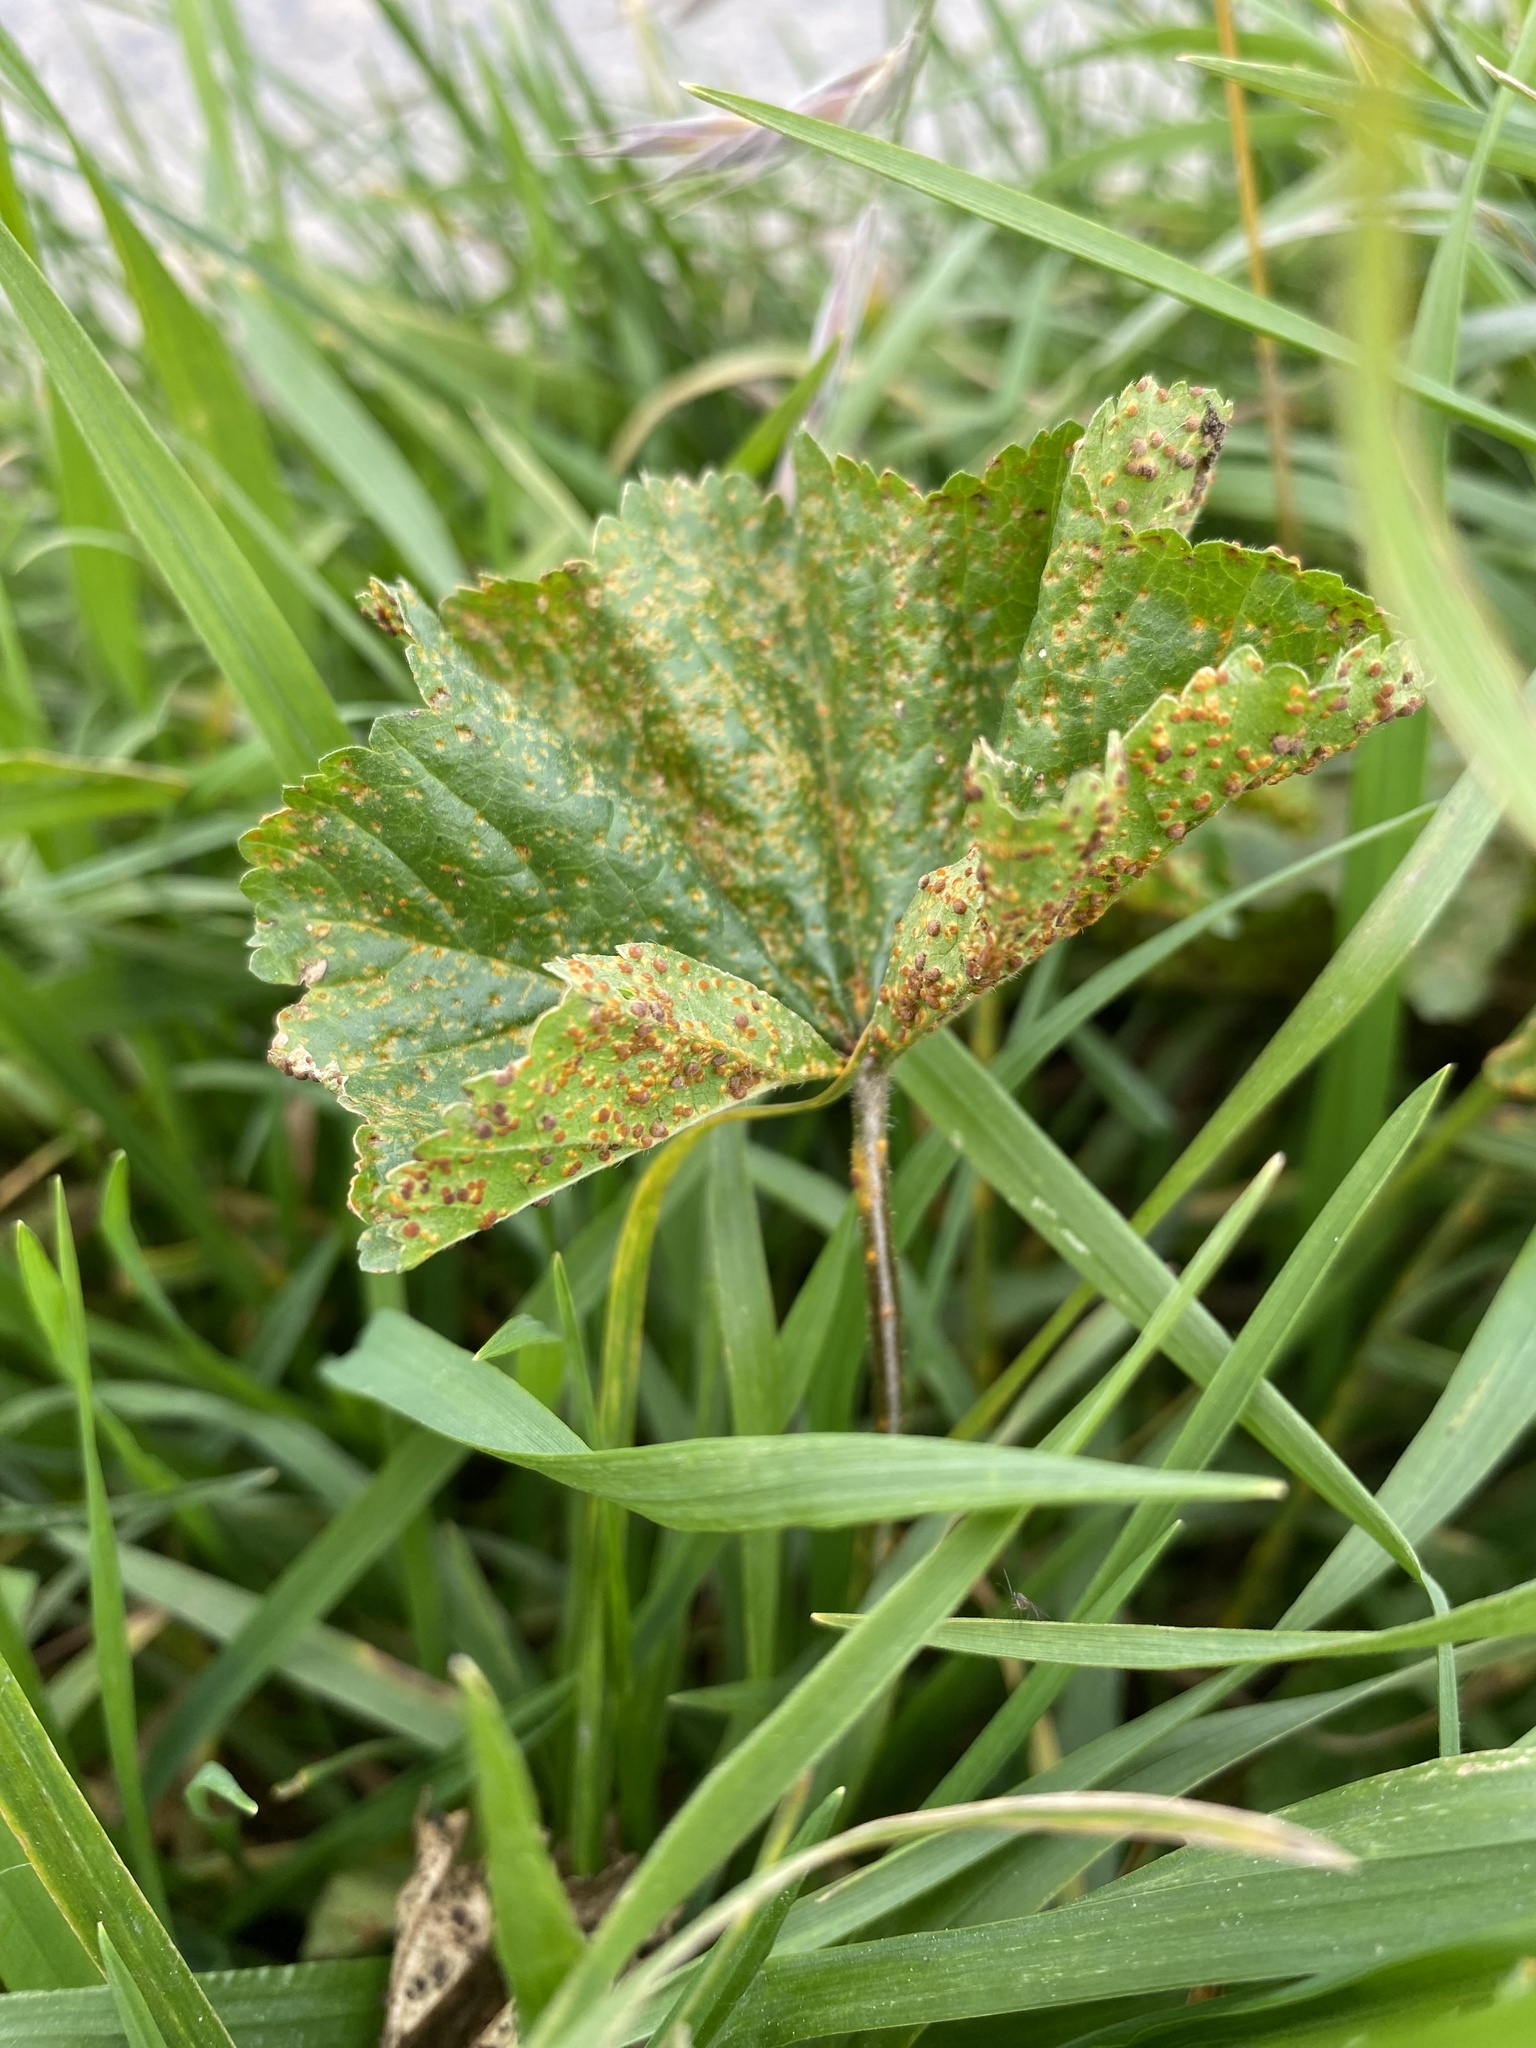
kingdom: Fungi
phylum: Basidiomycota
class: Pucciniomycetes
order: Pucciniales
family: Pucciniaceae
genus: Puccinia
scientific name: Puccinia malvacearum
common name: Hollyhock rust
